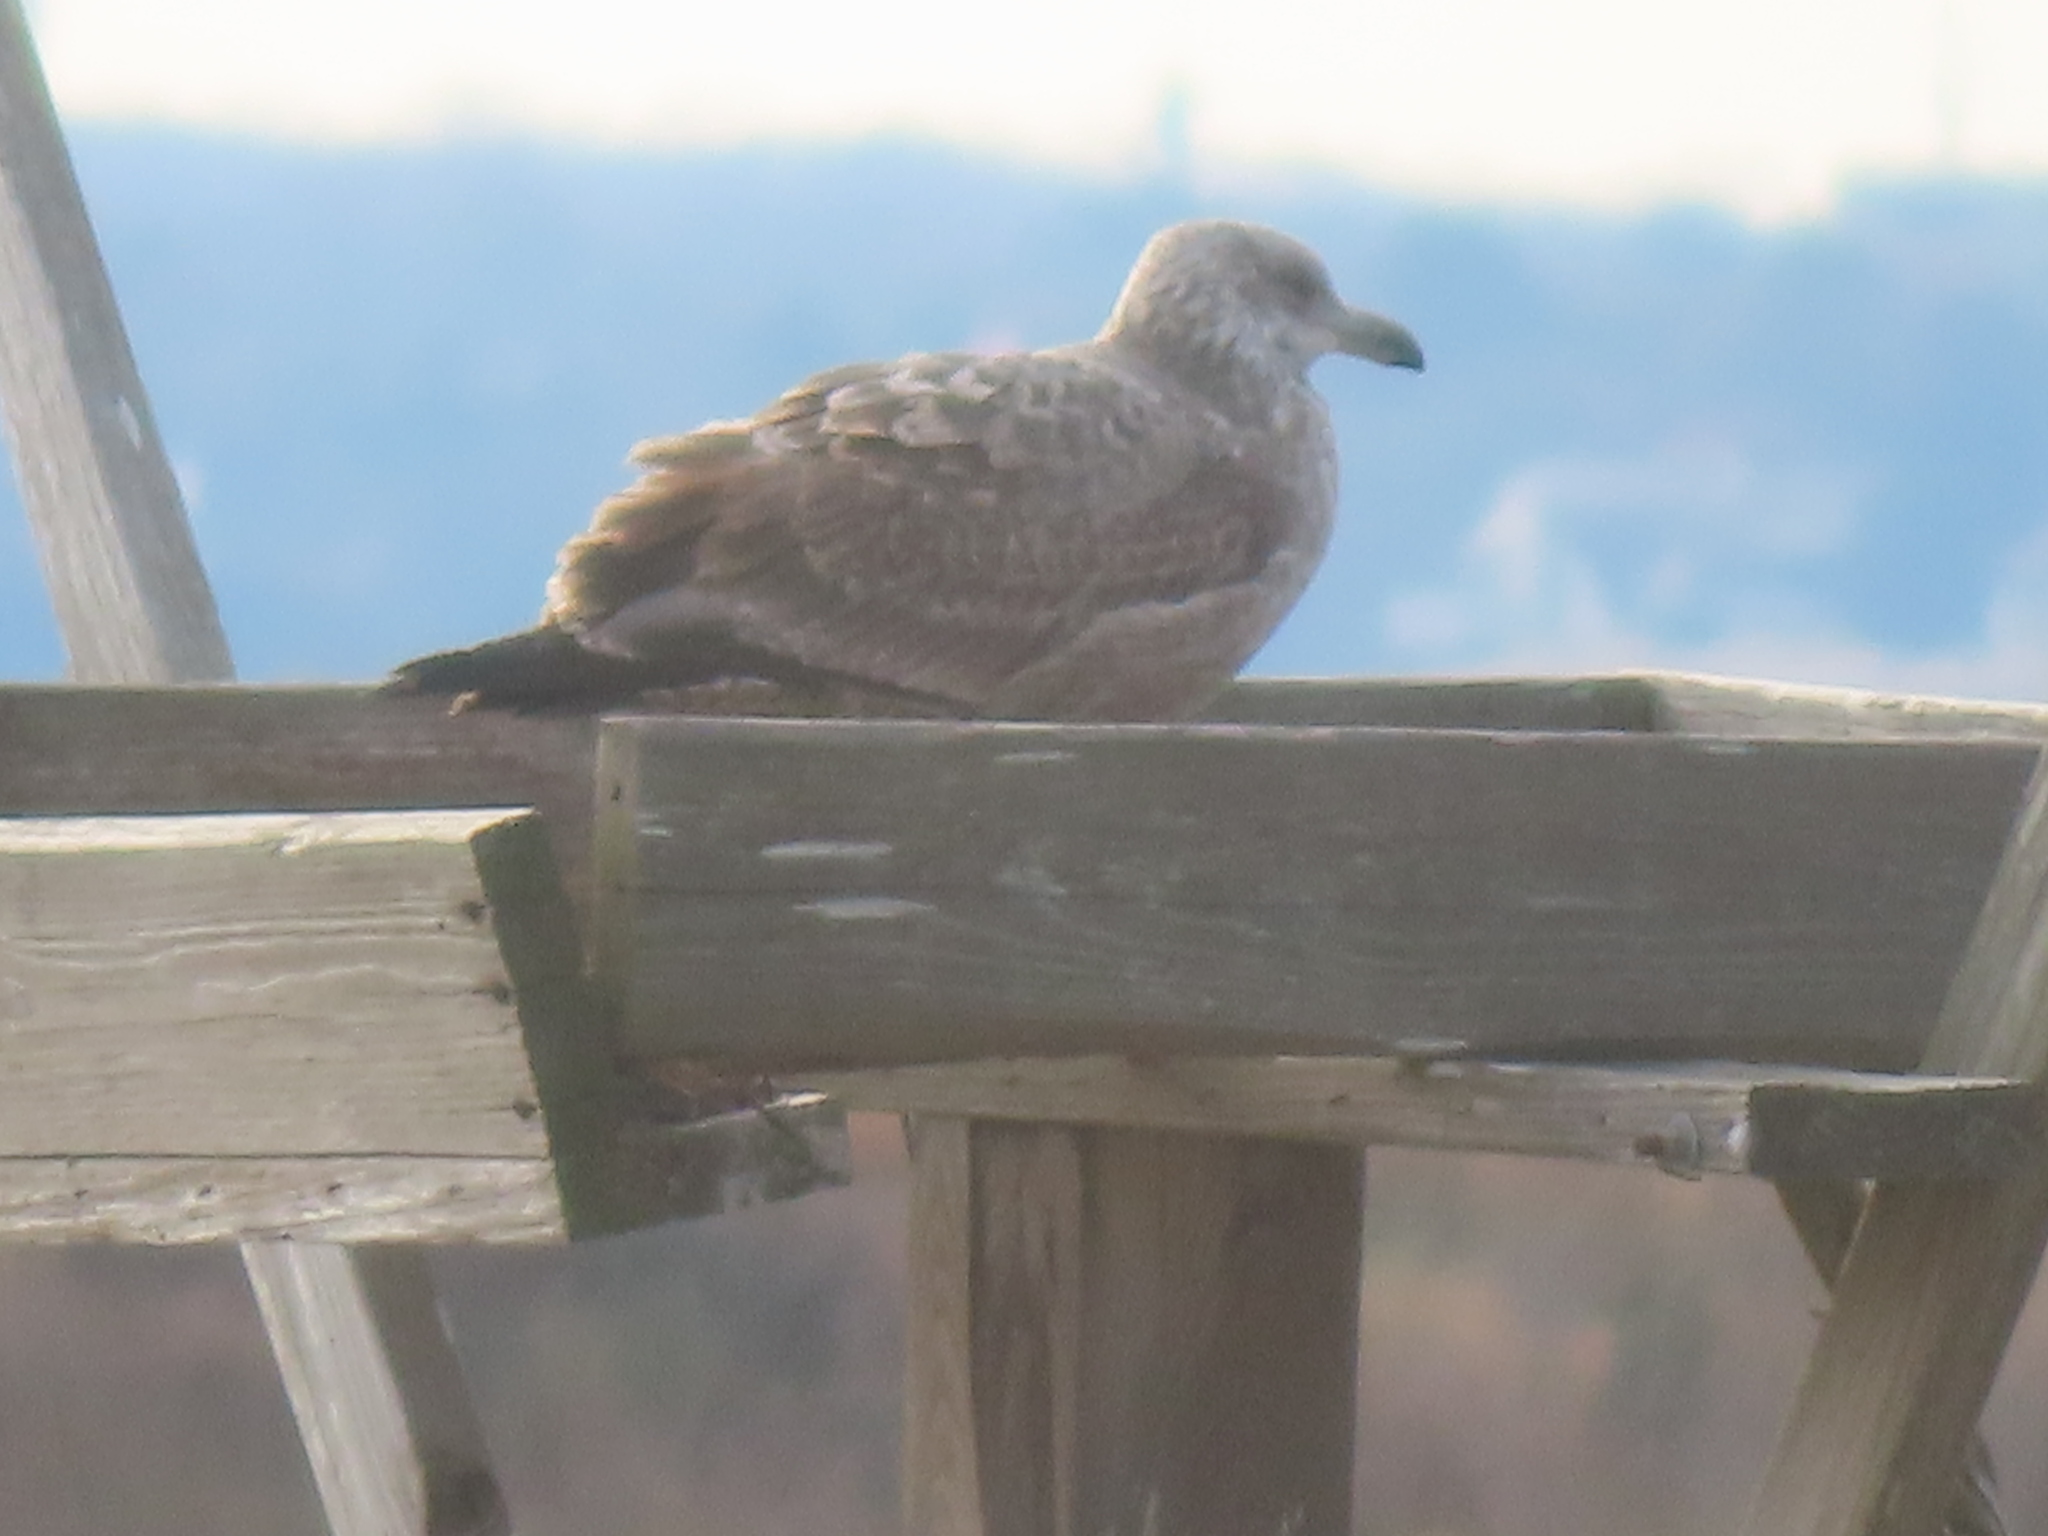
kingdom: Animalia
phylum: Chordata
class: Aves
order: Charadriiformes
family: Laridae
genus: Larus
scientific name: Larus argentatus
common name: Herring gull
